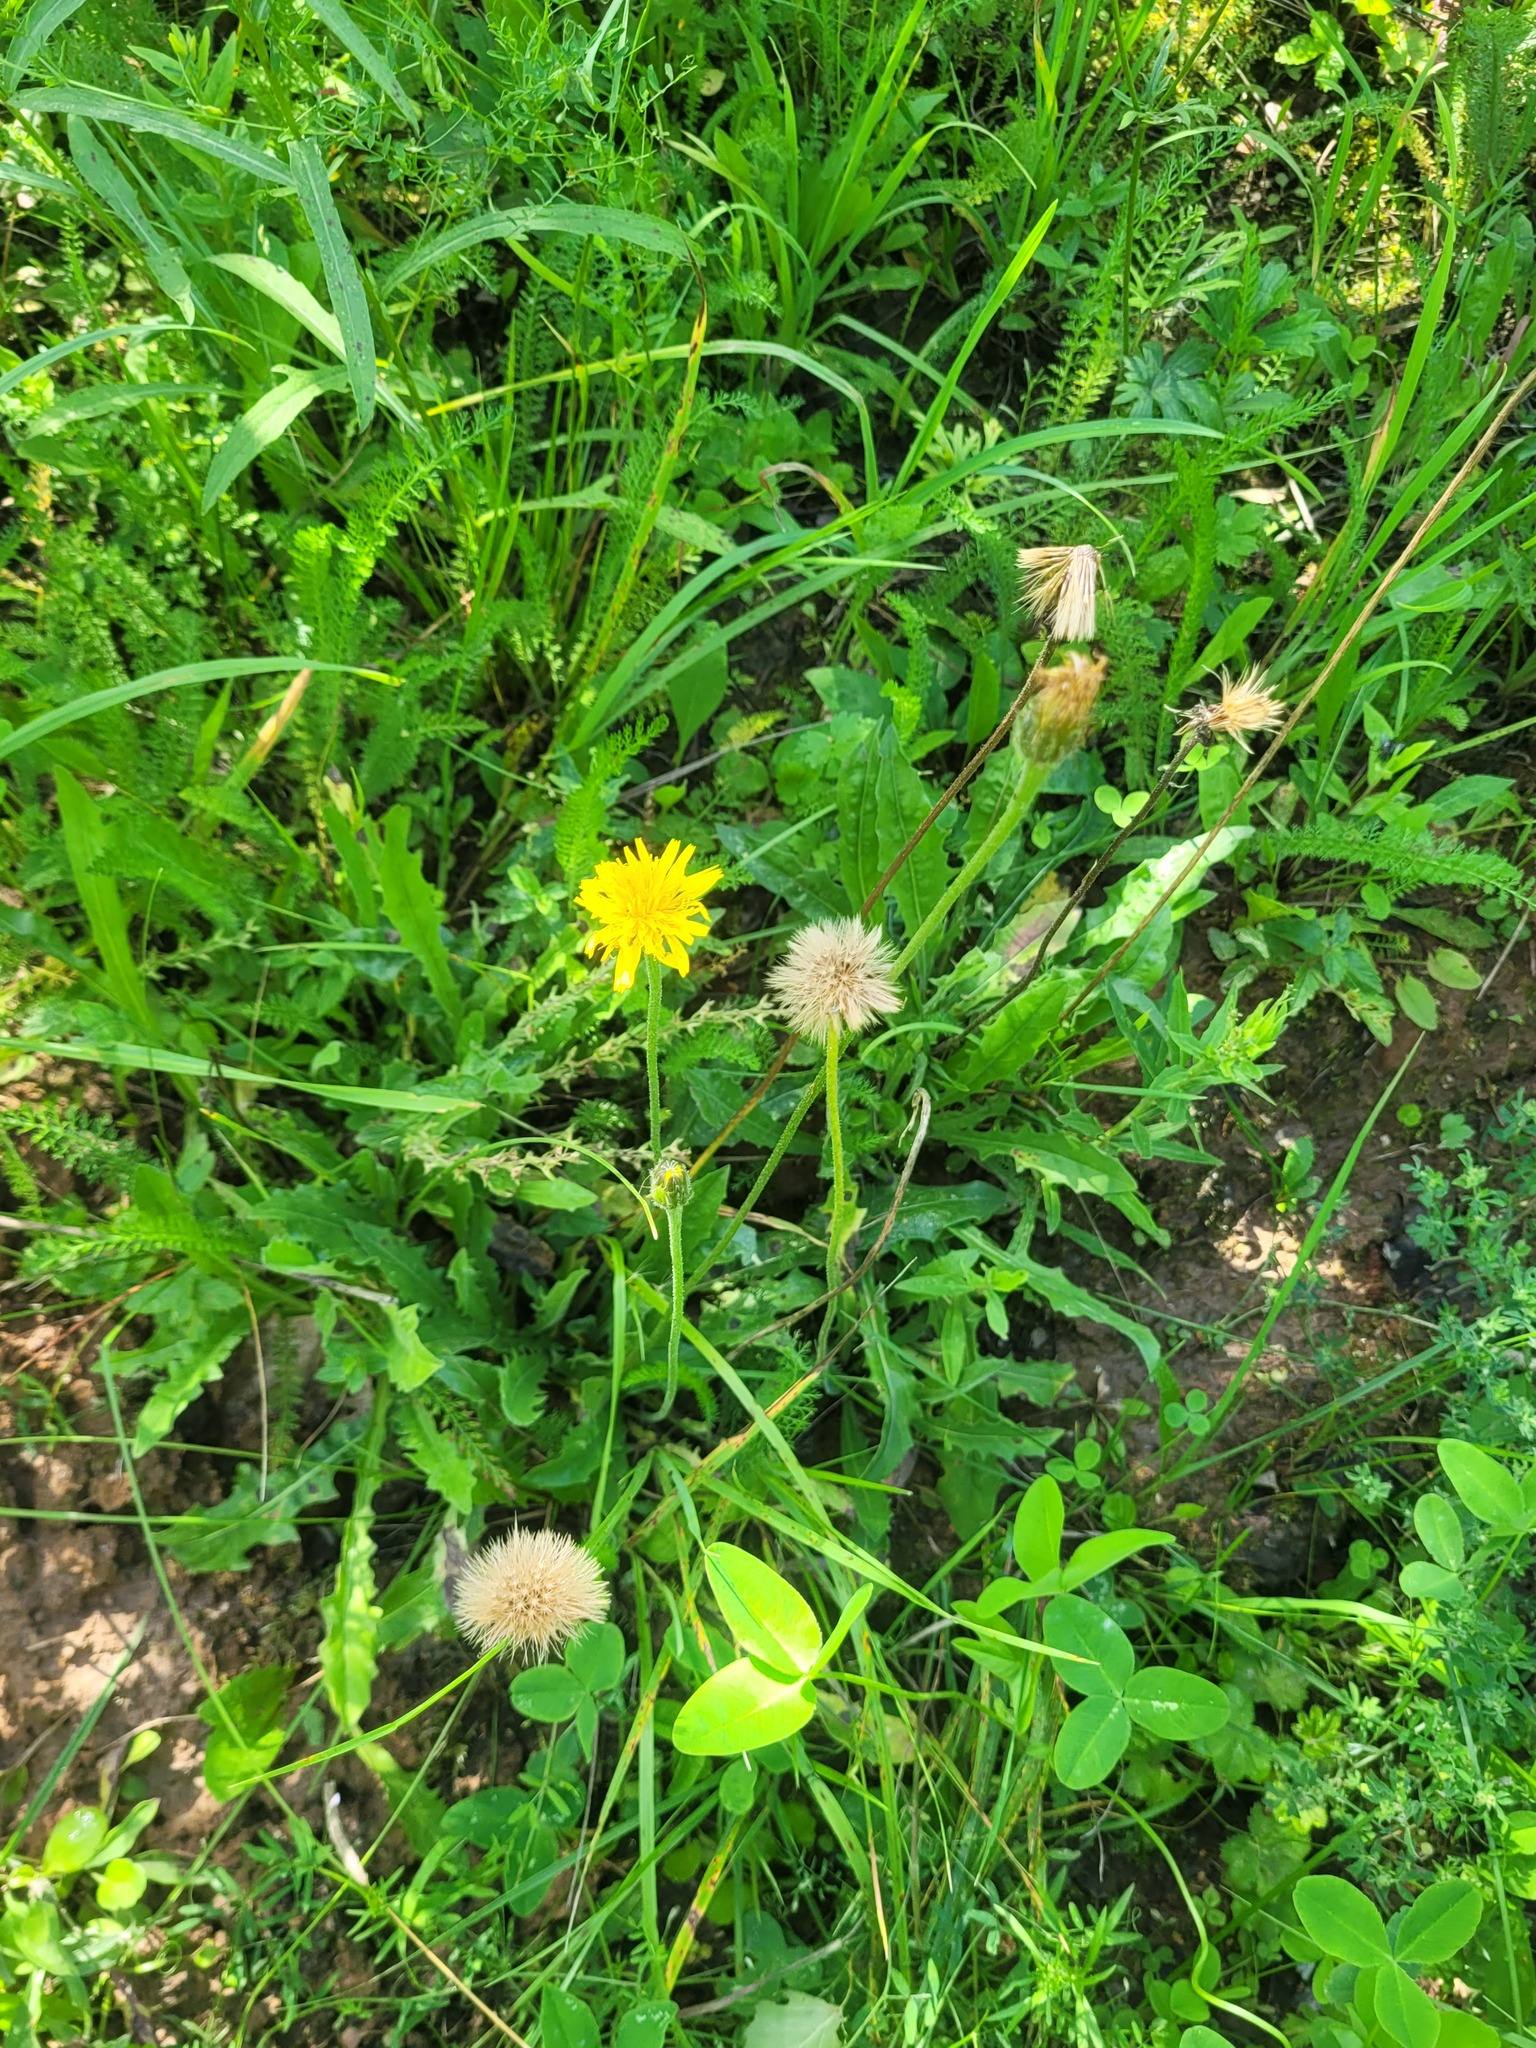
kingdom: Plantae
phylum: Tracheophyta
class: Magnoliopsida
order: Asterales
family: Asteraceae
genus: Leontodon
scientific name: Leontodon hispidus
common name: Rough hawkbit
